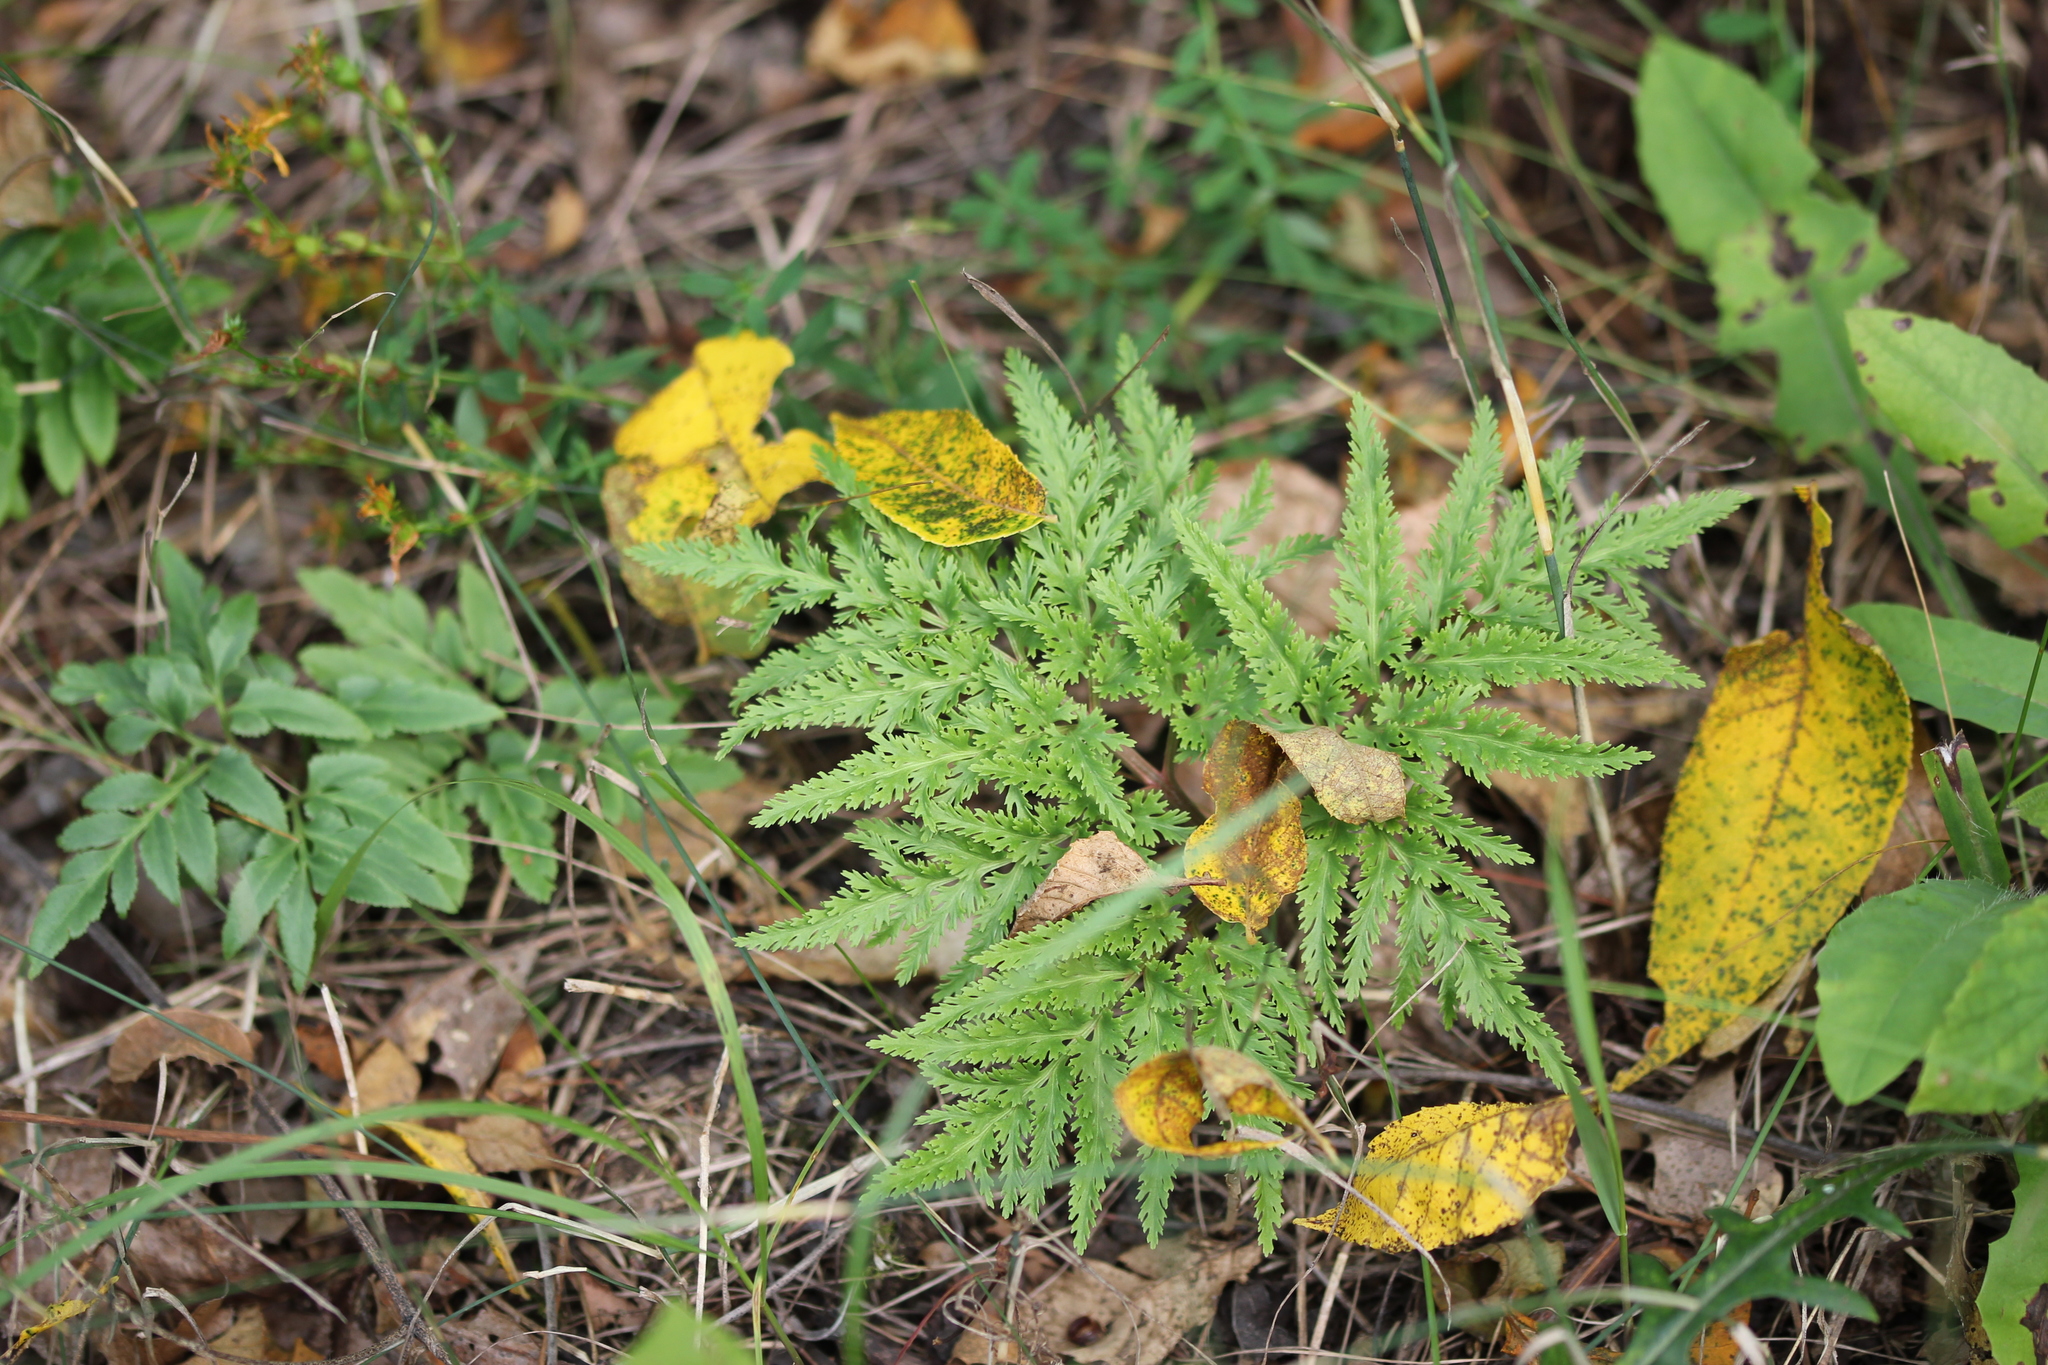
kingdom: Plantae
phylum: Tracheophyta
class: Polypodiopsida
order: Ophioglossales
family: Ophioglossaceae
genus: Sceptridium
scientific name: Sceptridium dissectum
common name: Cut-leaved grapefern
